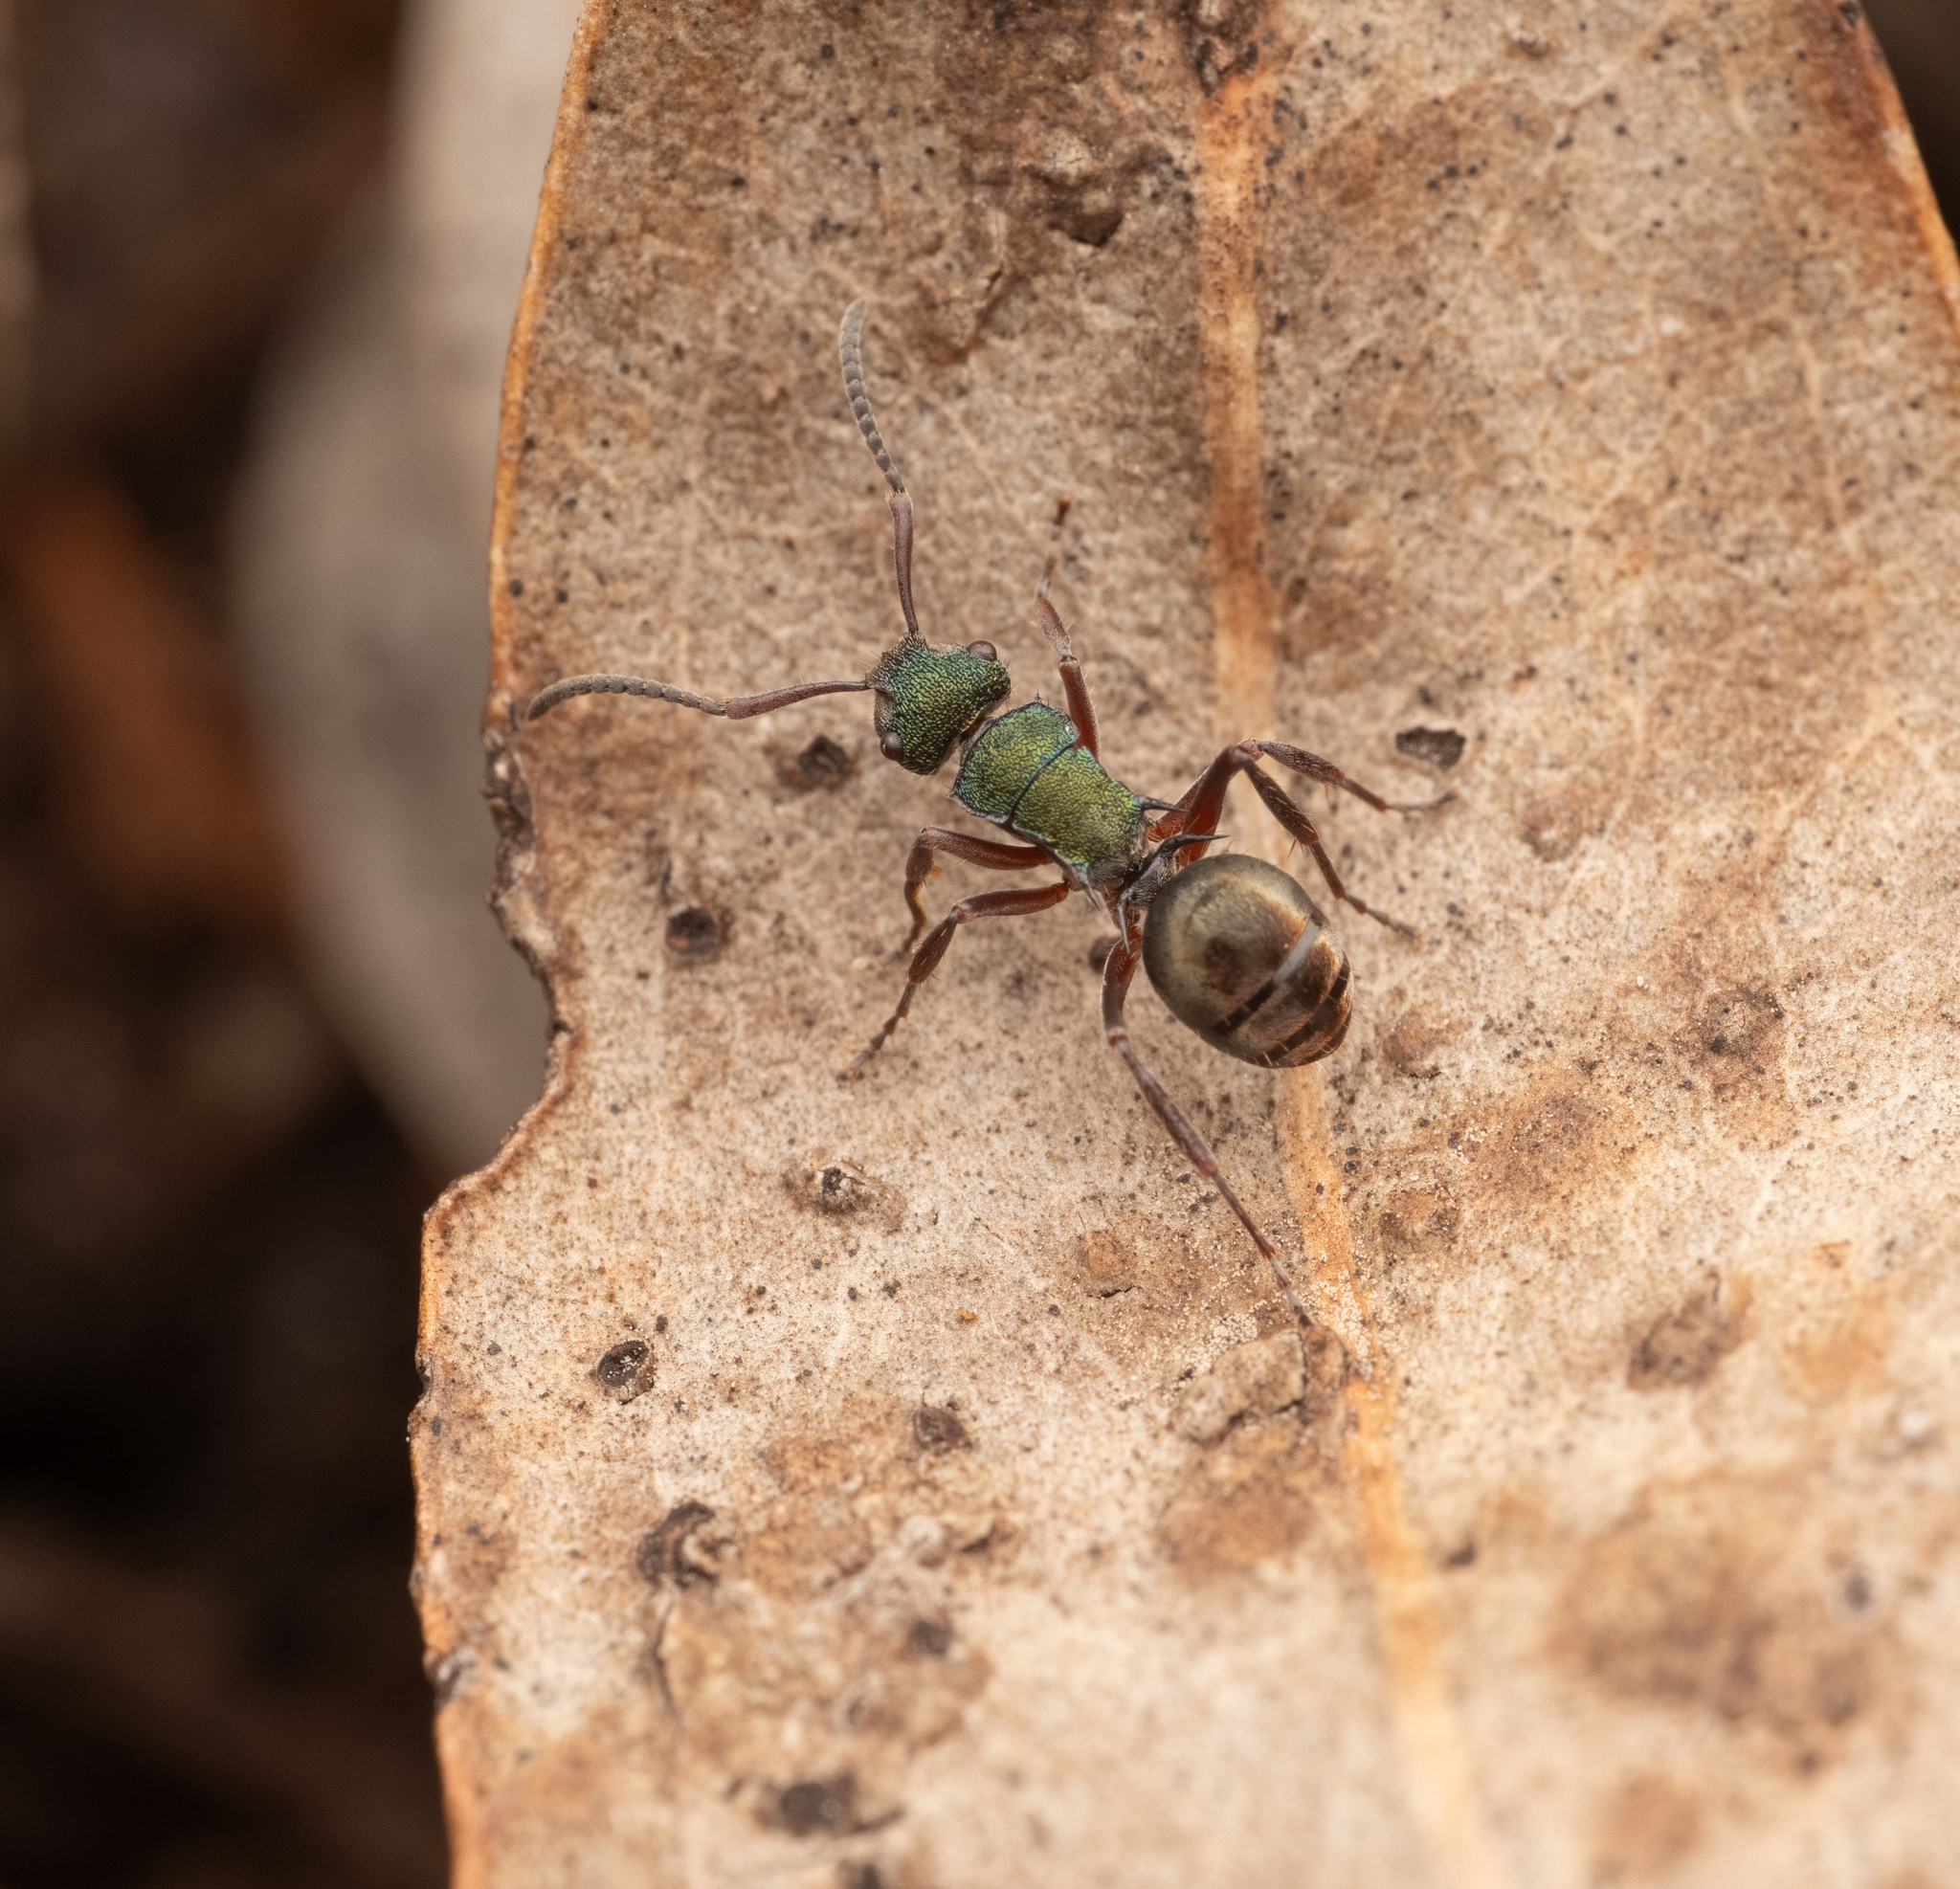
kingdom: Animalia
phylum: Arthropoda
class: Insecta
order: Hymenoptera
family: Formicidae
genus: Polyrhachis
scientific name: Polyrhachis hookeri
